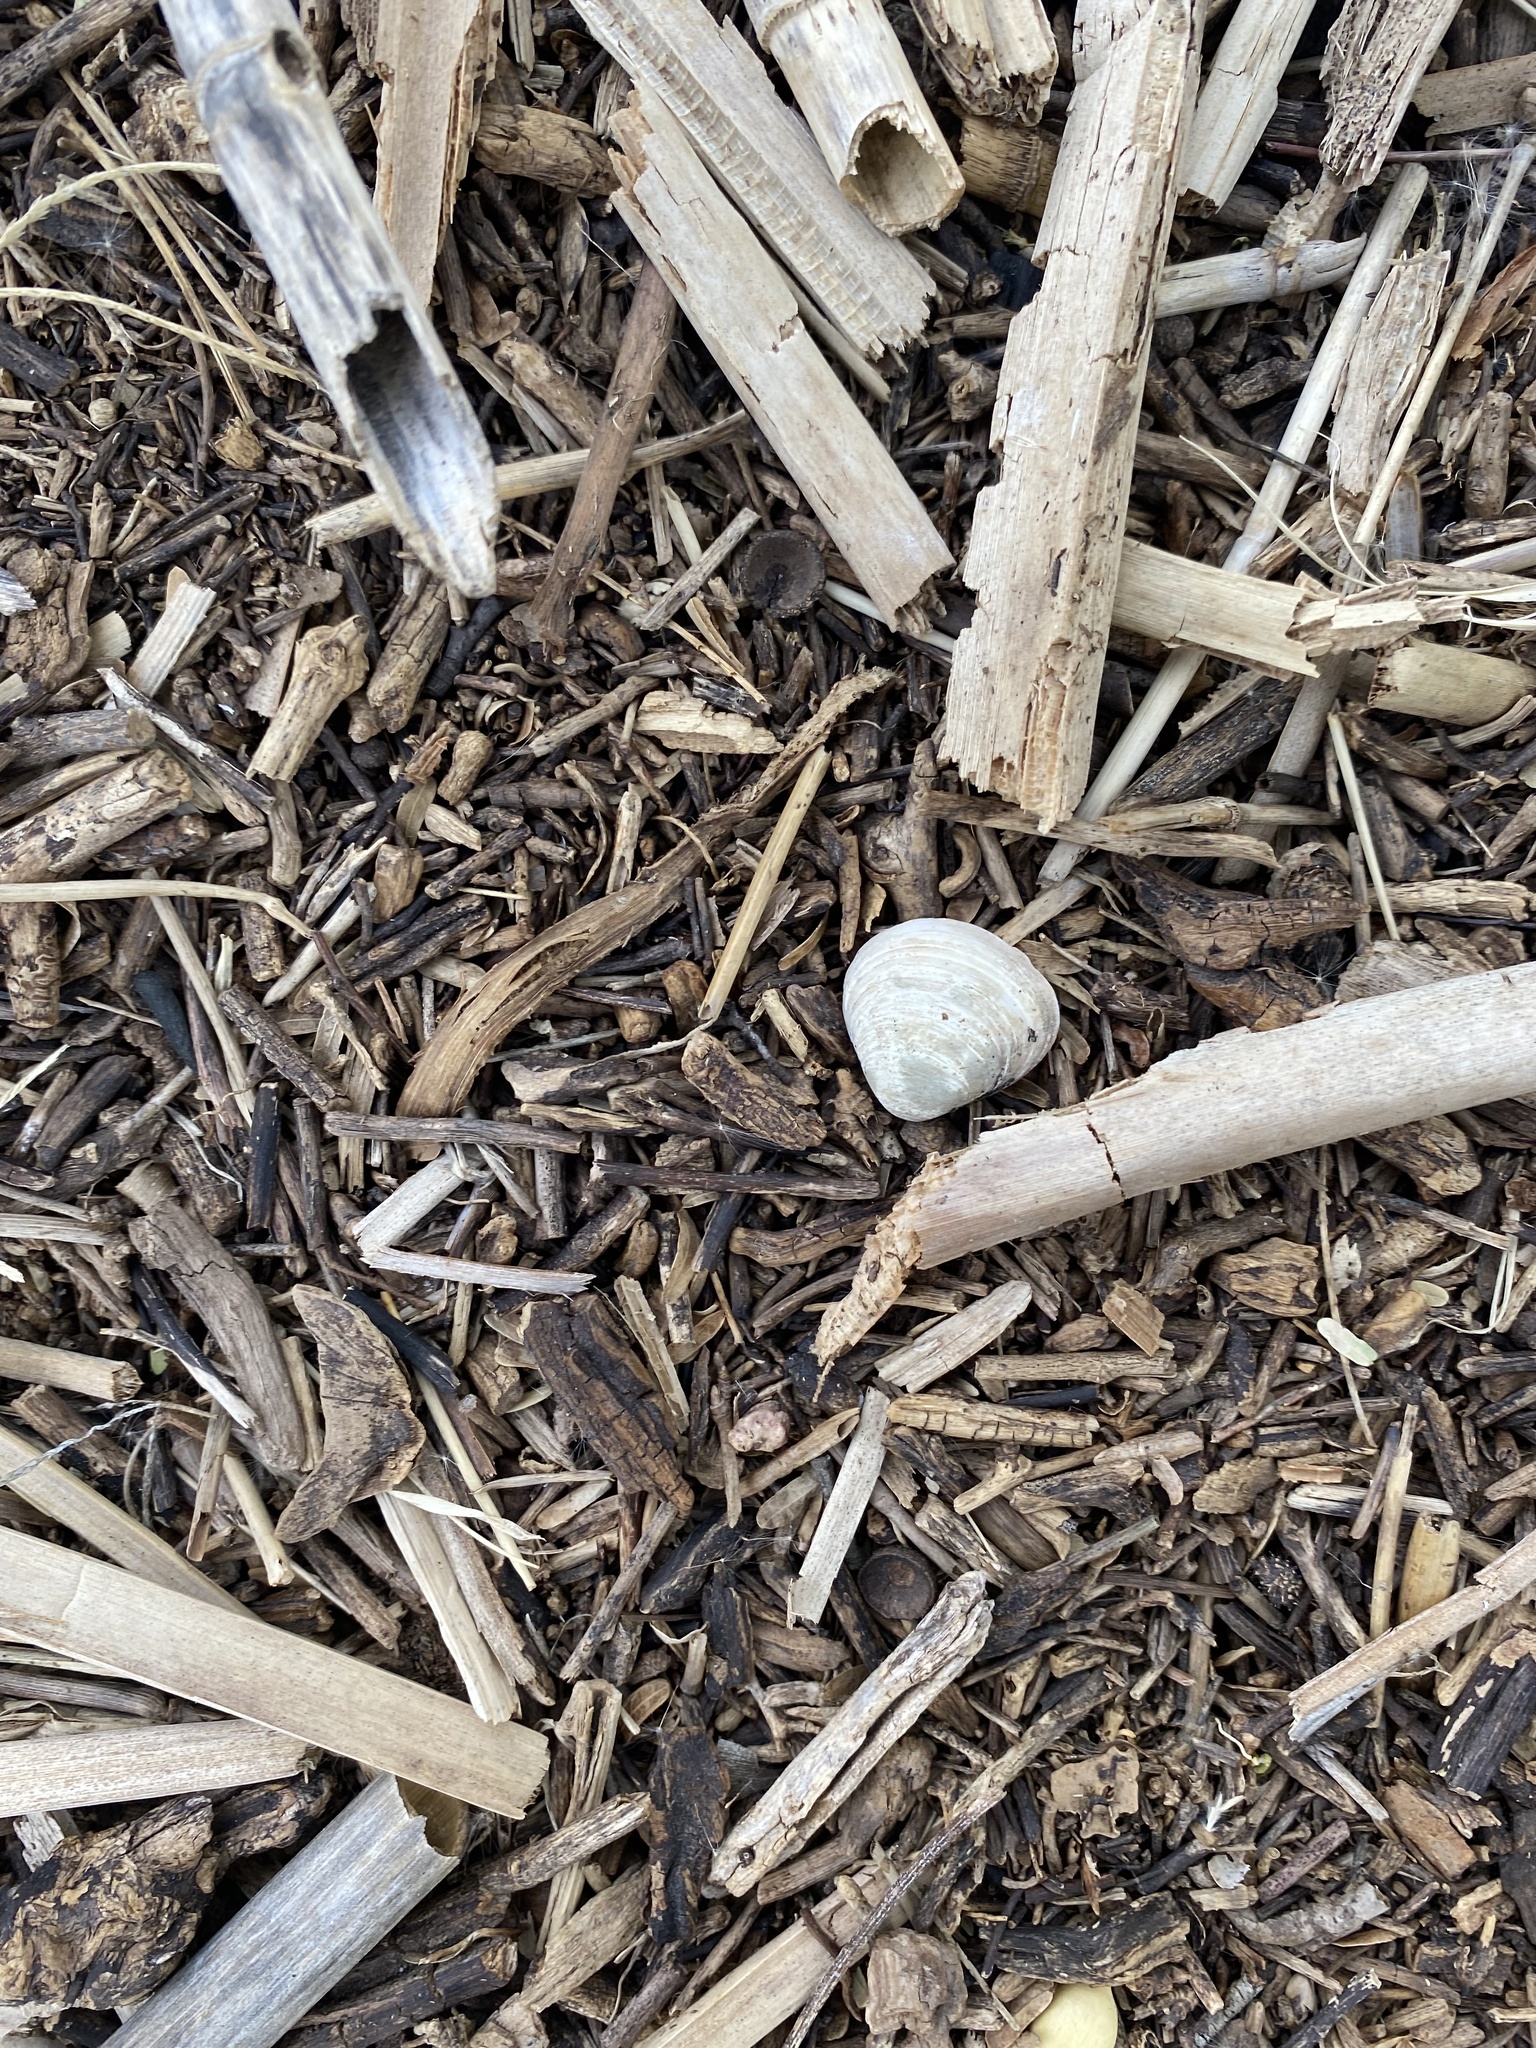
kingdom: Animalia
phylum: Mollusca
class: Bivalvia
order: Venerida
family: Cyrenidae
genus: Corbicula
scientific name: Corbicula fluminea
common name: Asian clam
